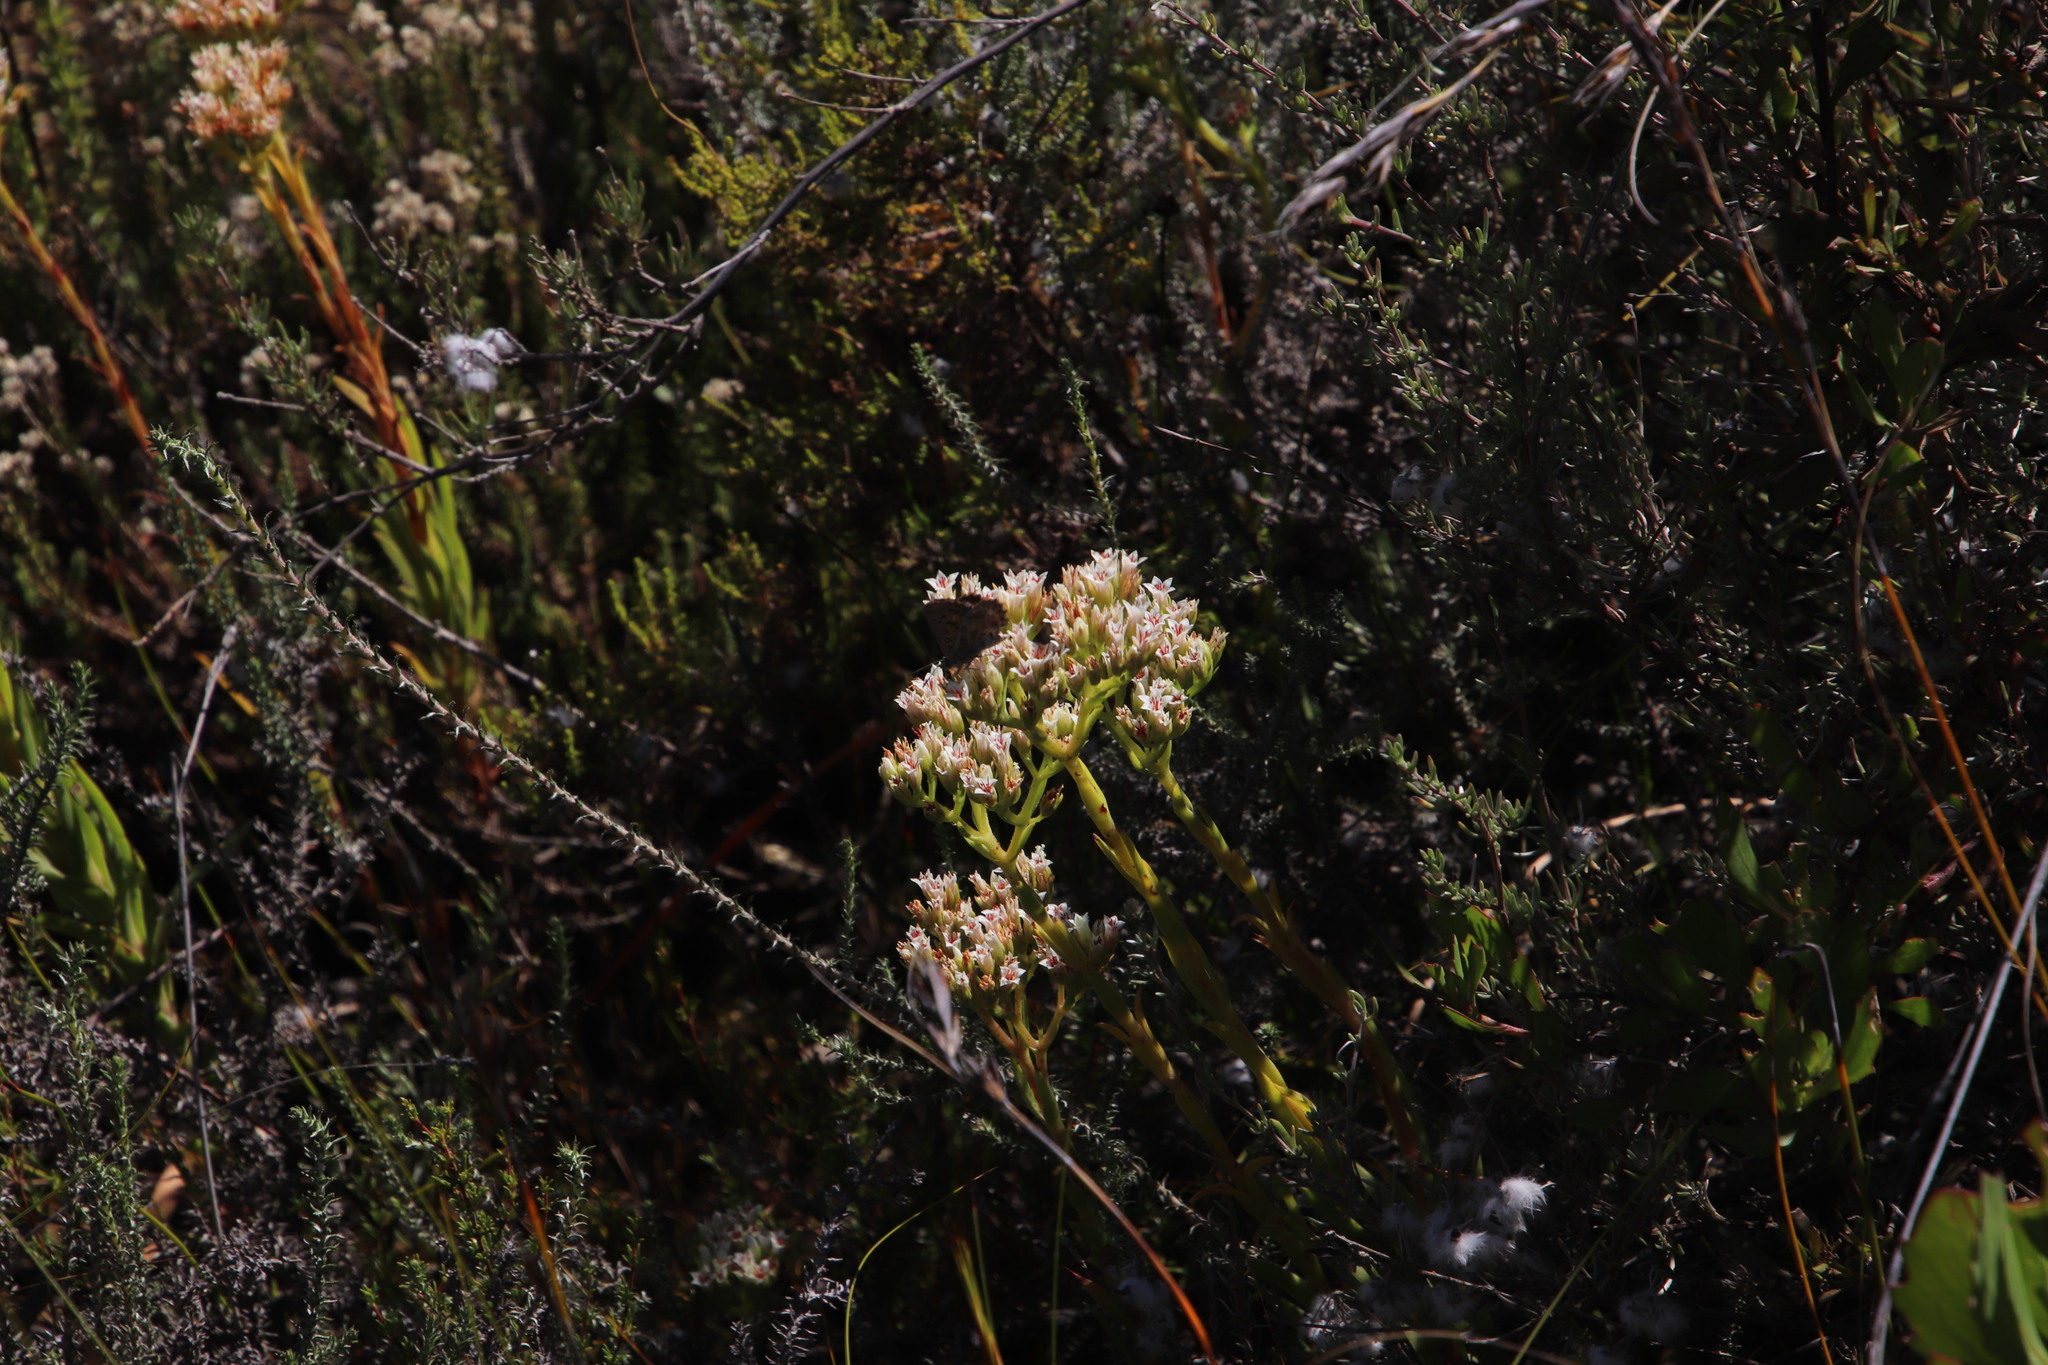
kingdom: Plantae
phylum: Tracheophyta
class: Magnoliopsida
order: Saxifragales
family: Crassulaceae
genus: Crassula
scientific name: Crassula subulata
